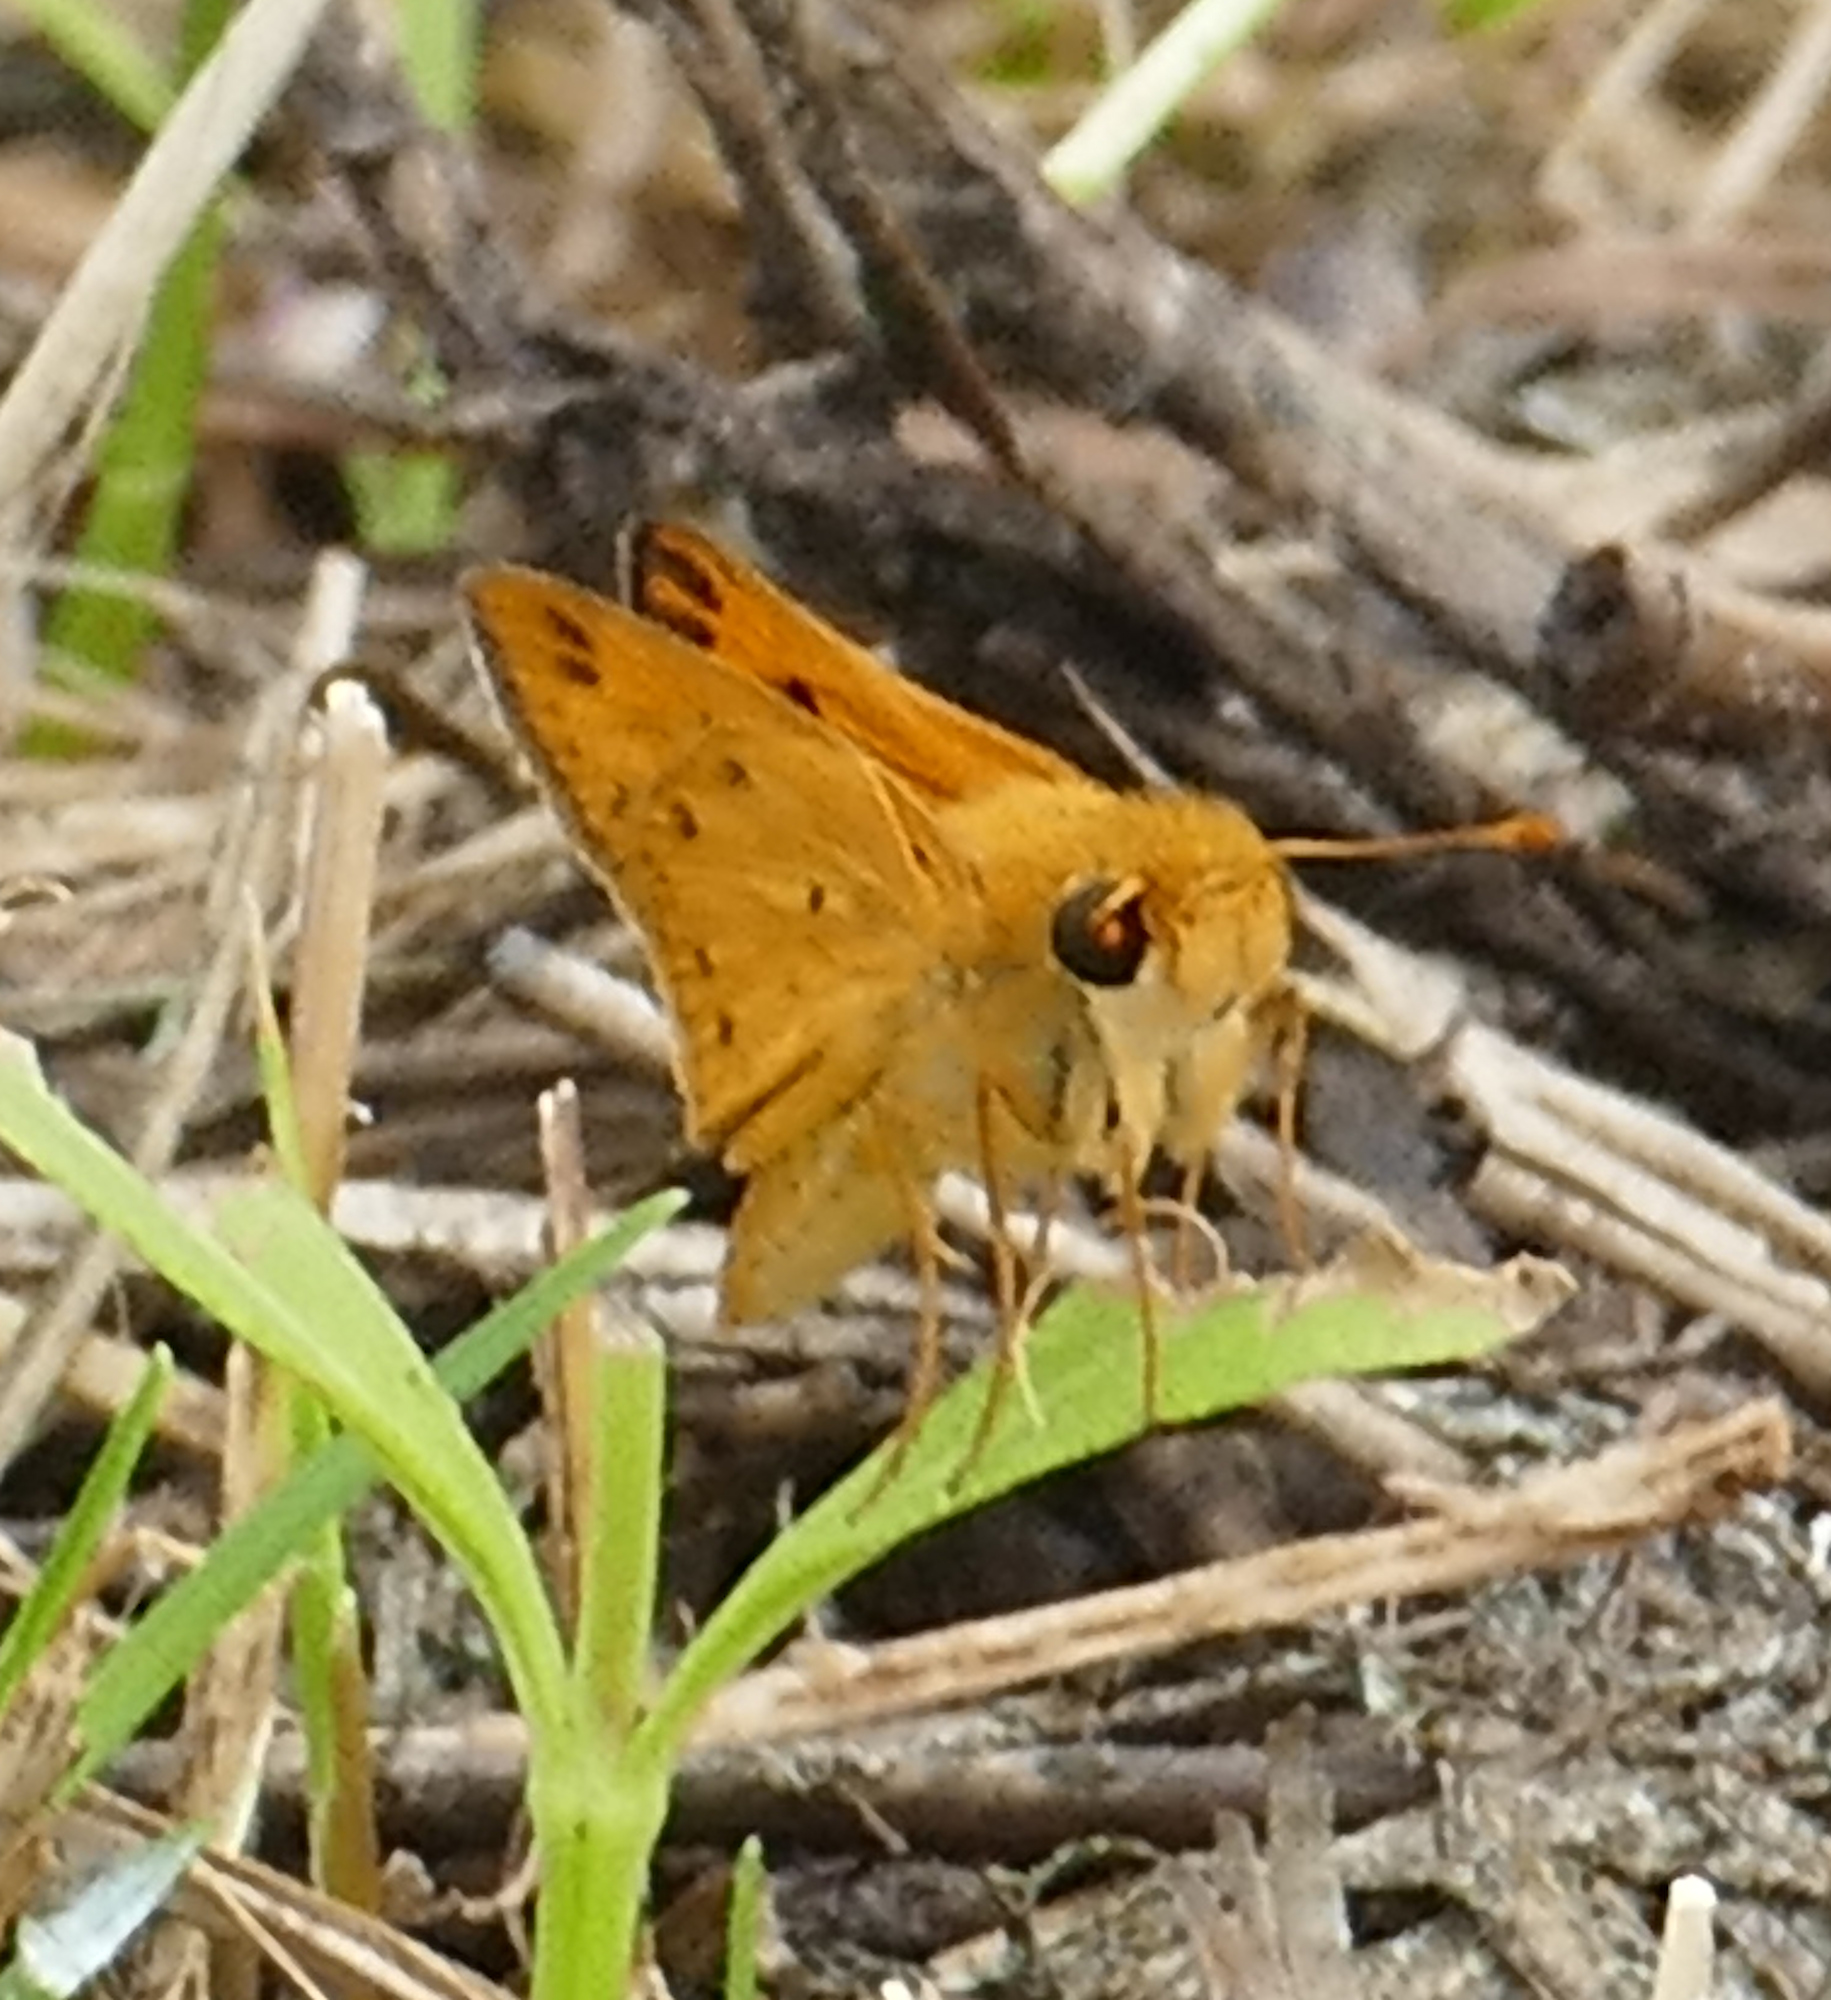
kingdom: Animalia
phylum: Arthropoda
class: Insecta
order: Lepidoptera
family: Hesperiidae
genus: Hylephila
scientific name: Hylephila phyleus
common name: Fiery skipper
